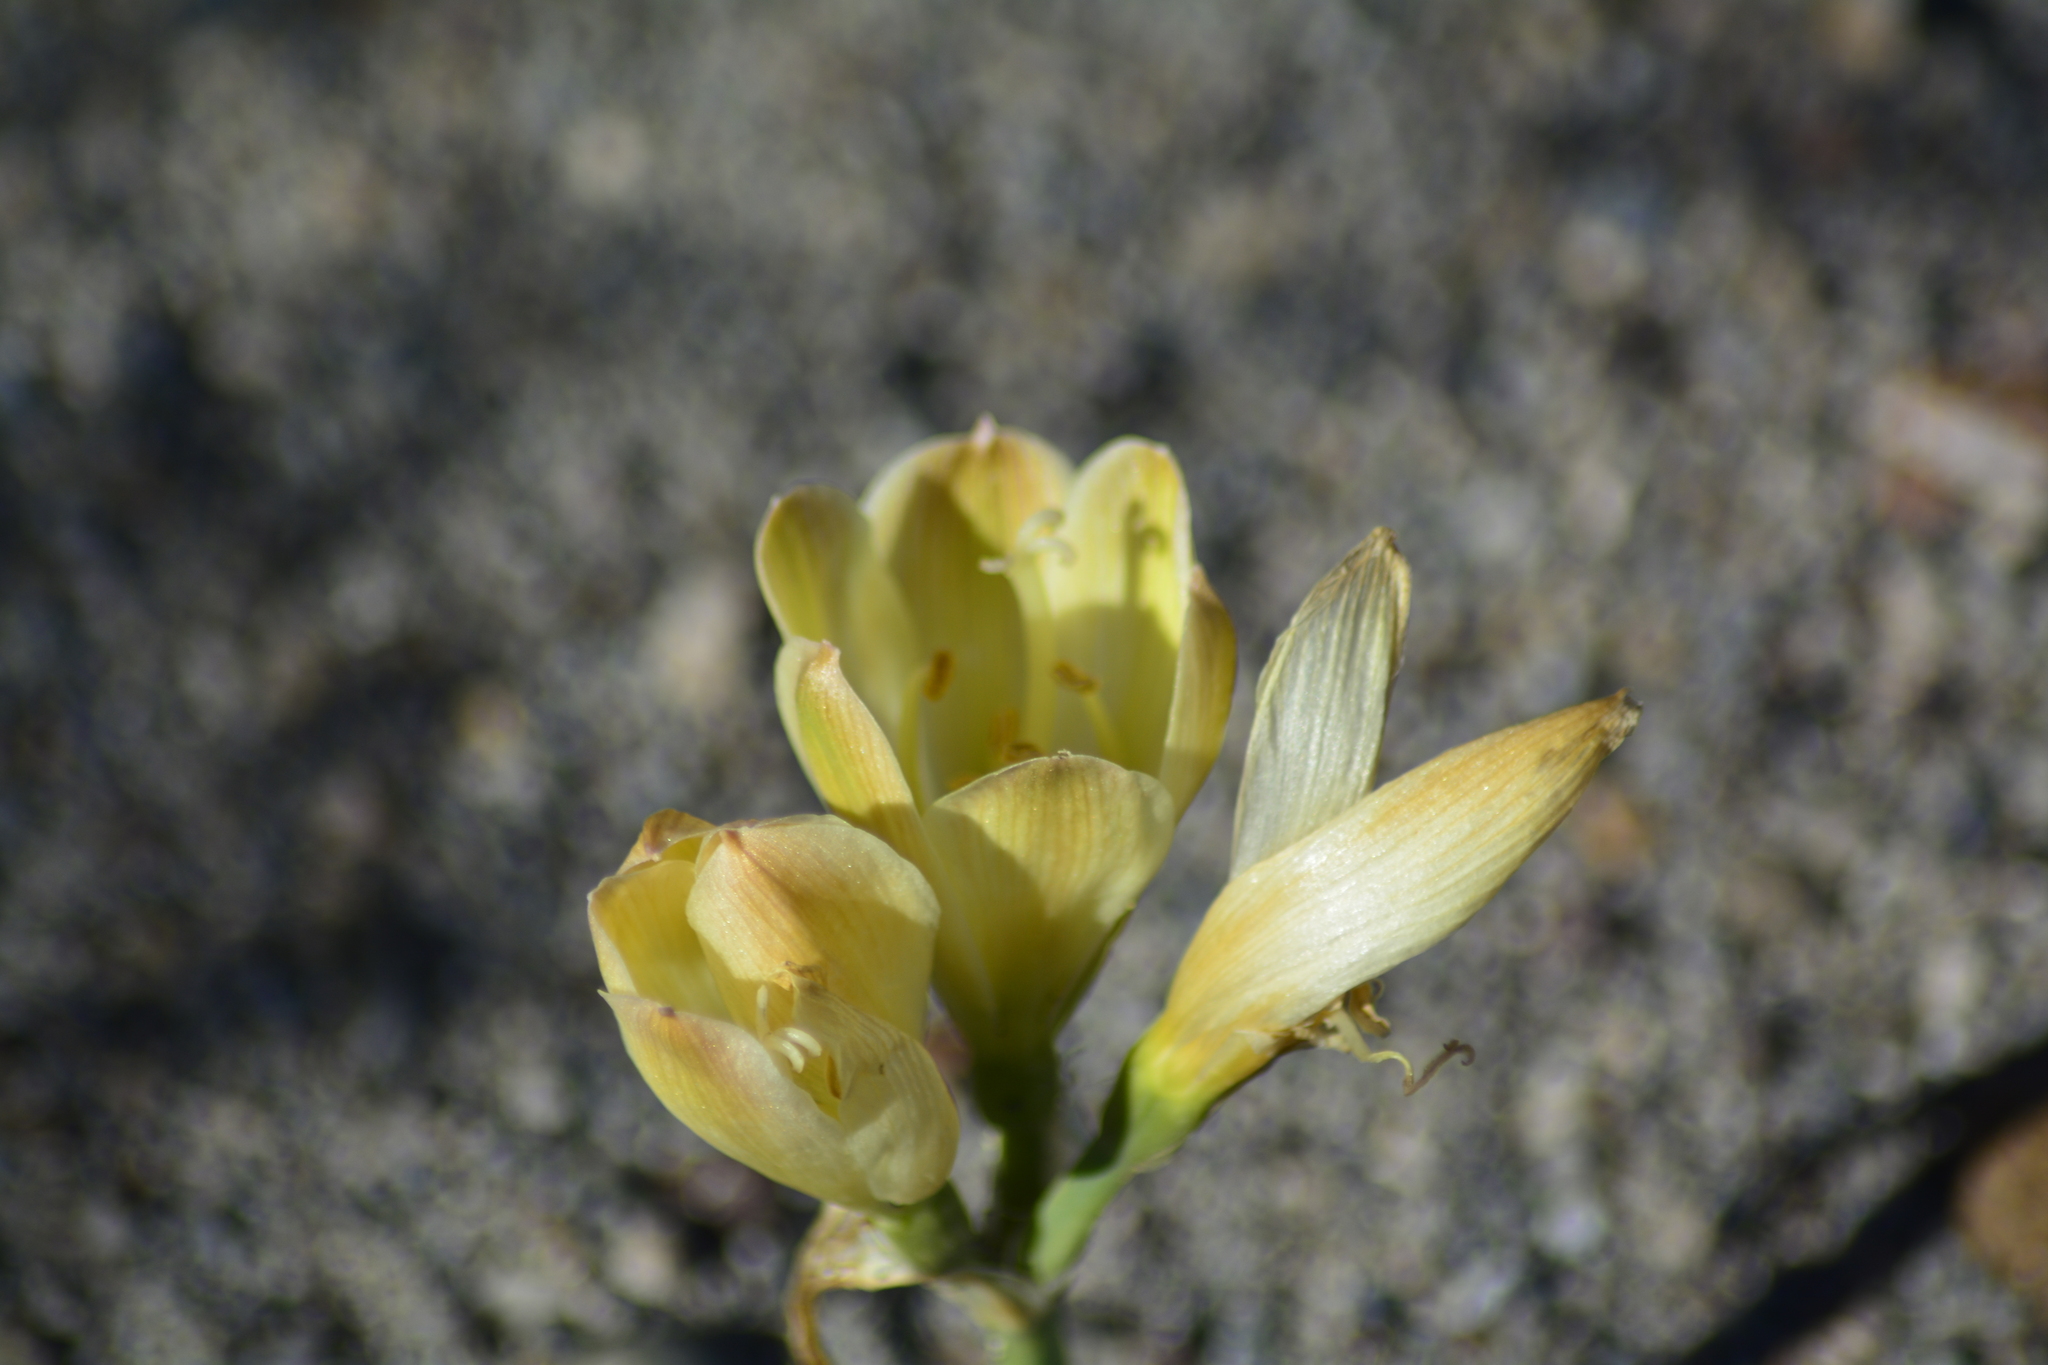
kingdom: Plantae
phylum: Tracheophyta
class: Liliopsida
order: Asparagales
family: Amaryllidaceae
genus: Zephyranthes
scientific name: Zephyranthes gilliesiana
